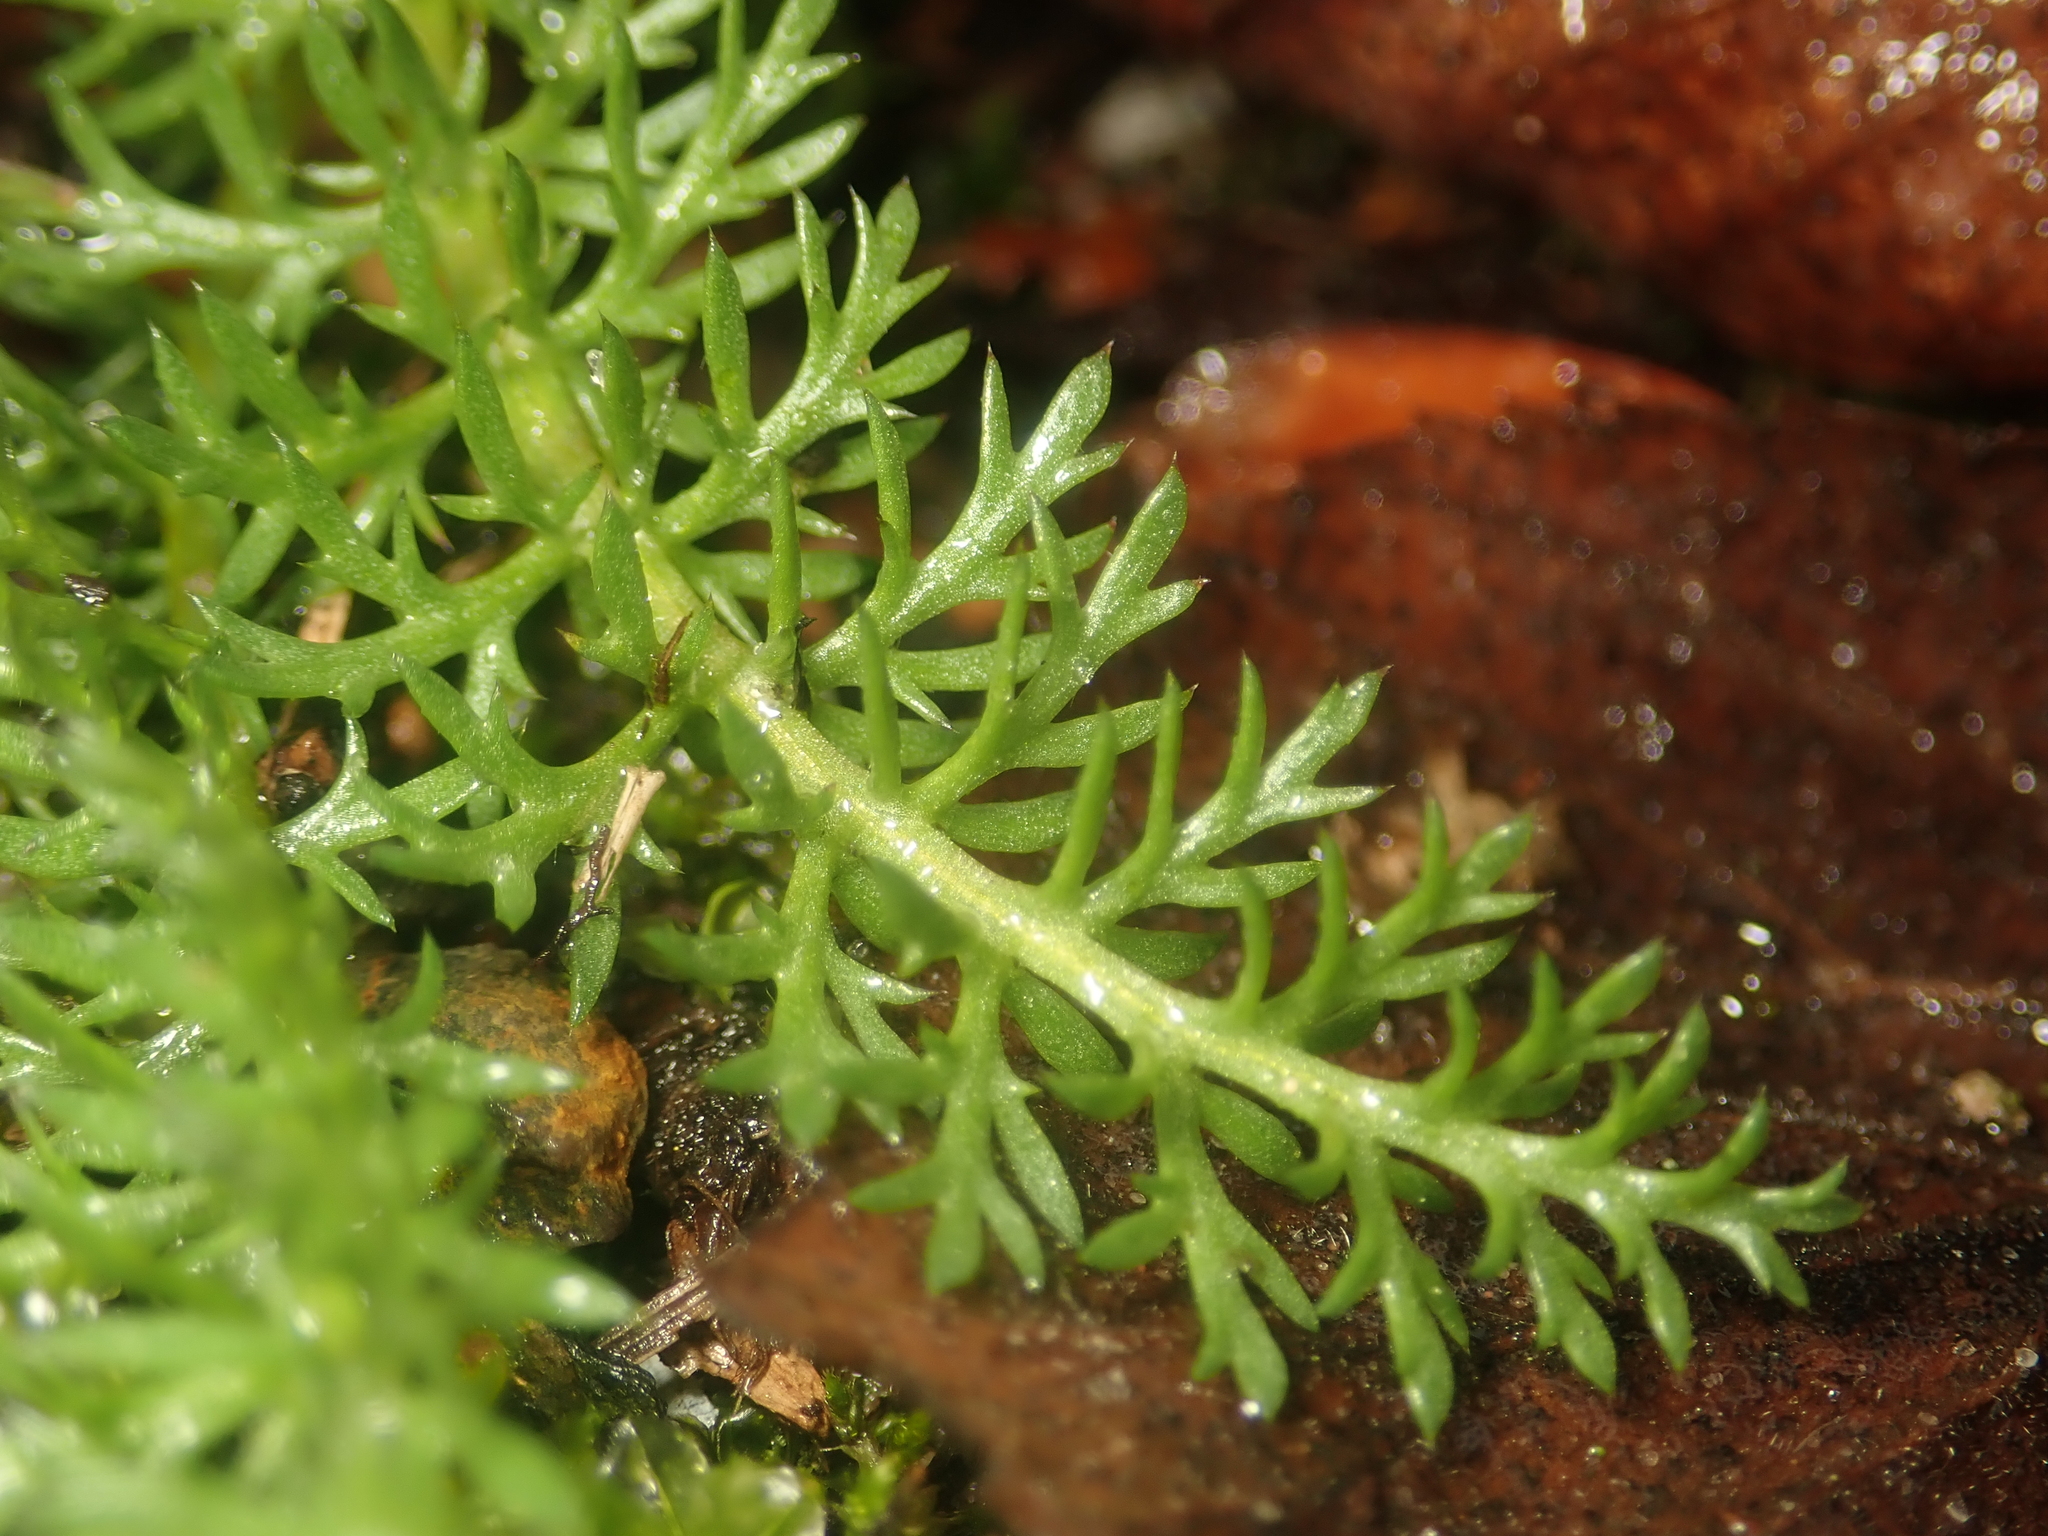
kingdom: Plantae
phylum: Tracheophyta
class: Magnoliopsida
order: Asterales
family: Asteraceae
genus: Achillea
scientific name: Achillea millefolium
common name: Yarrow
